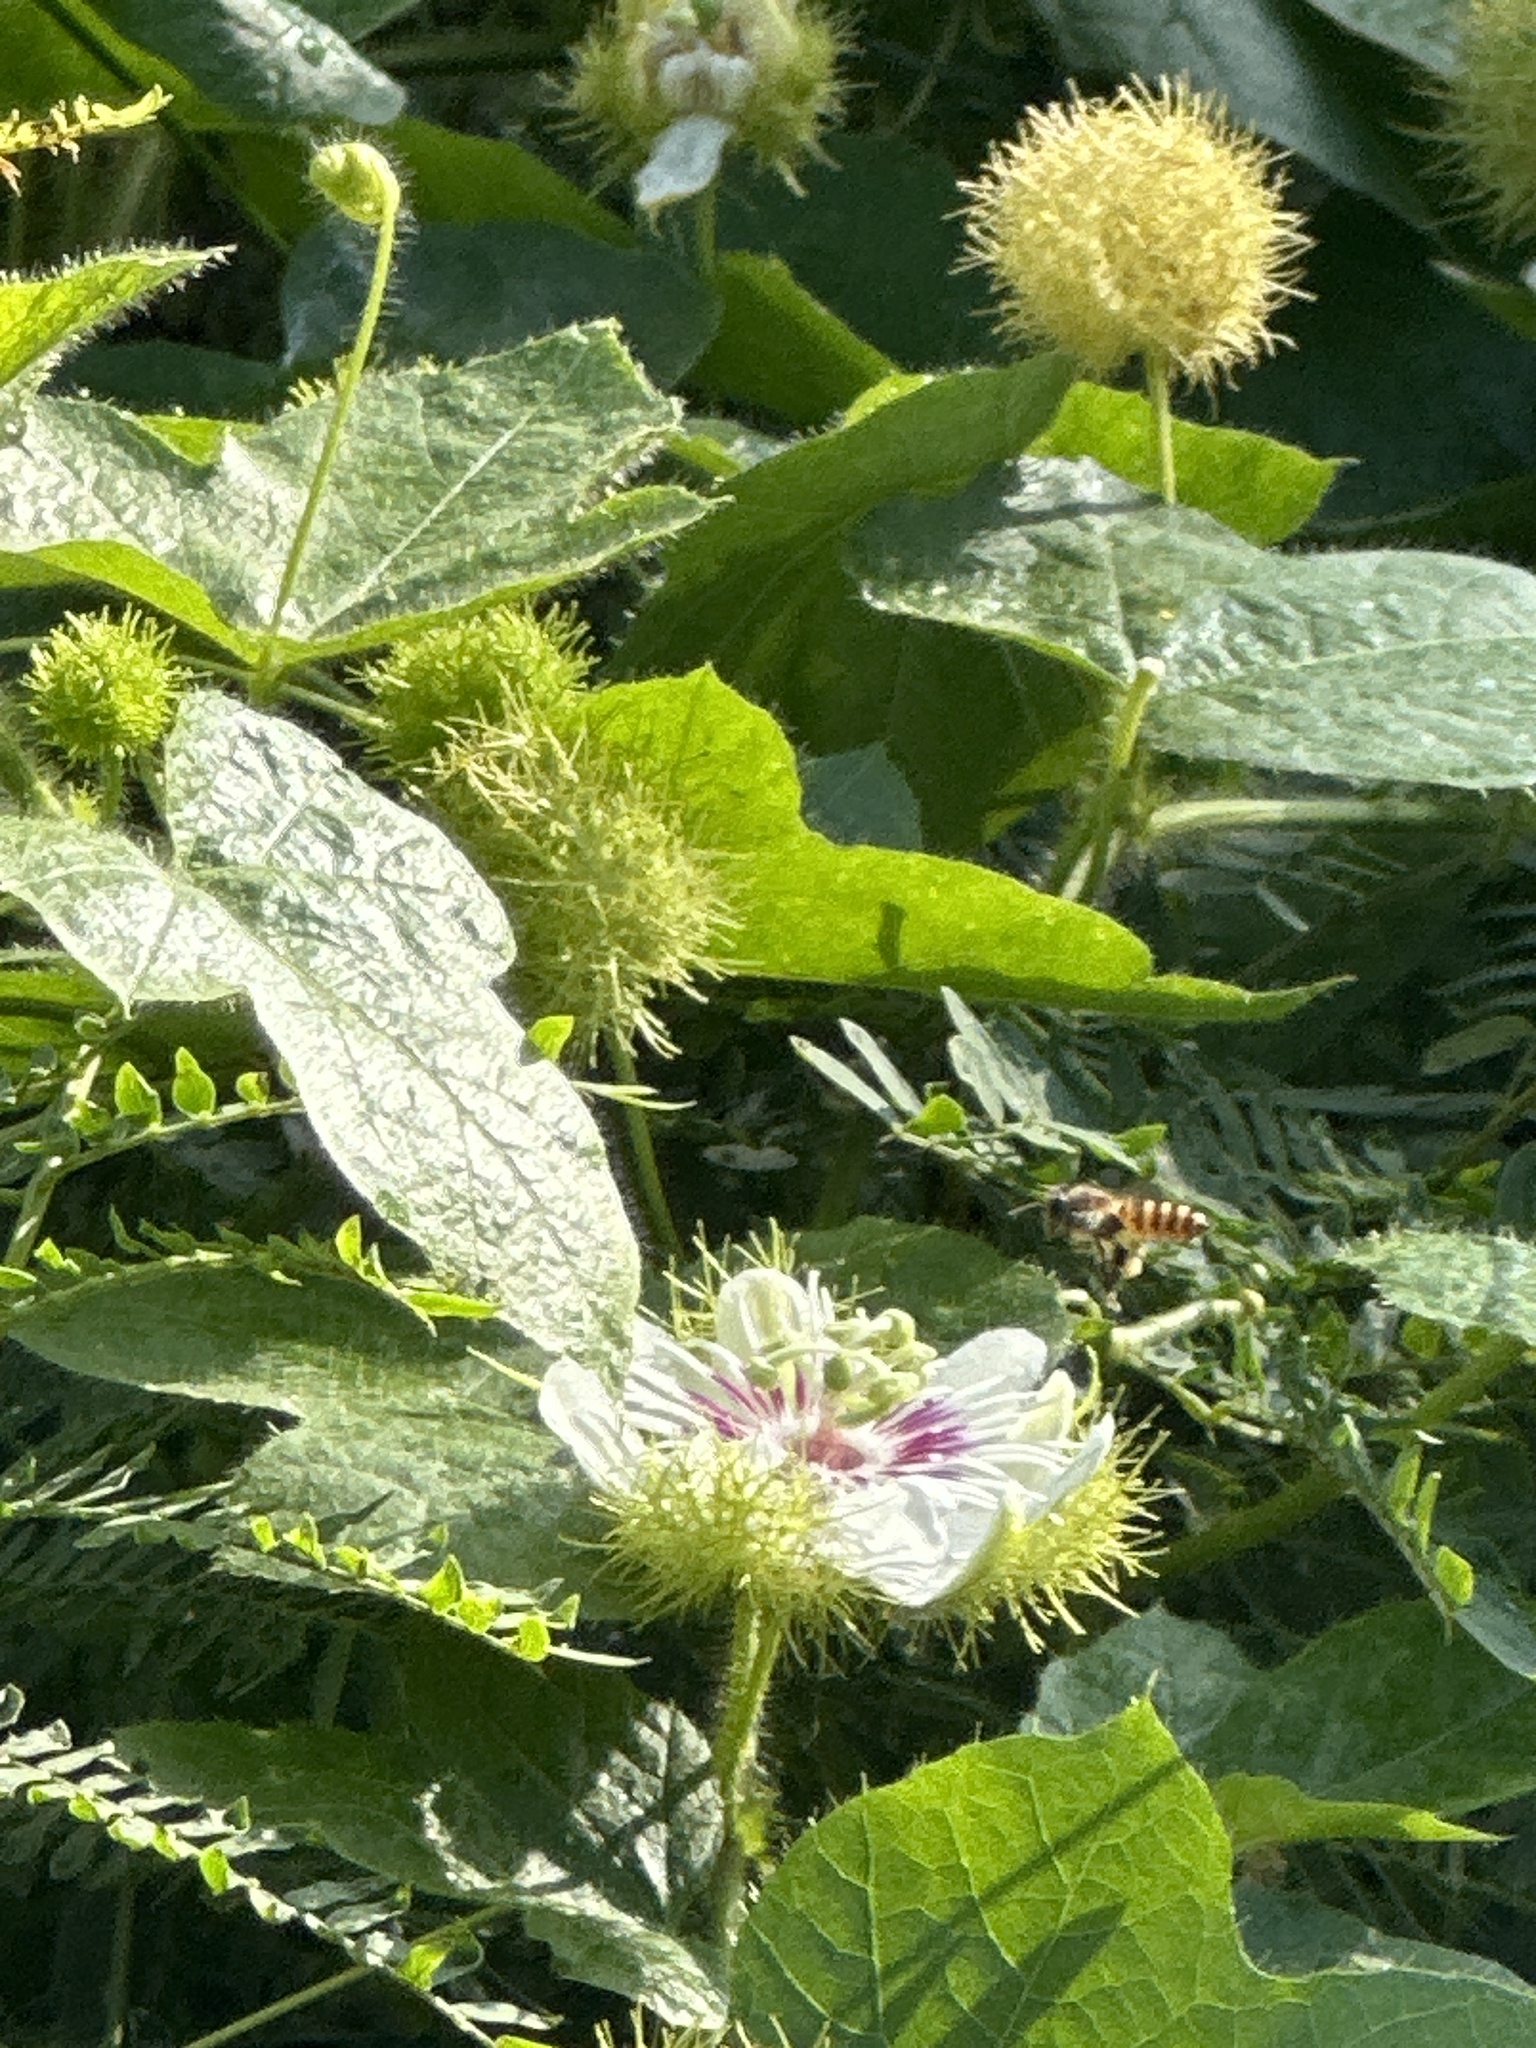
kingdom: Plantae
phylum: Tracheophyta
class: Magnoliopsida
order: Malpighiales
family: Passifloraceae
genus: Passiflora
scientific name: Passiflora vesicaria
